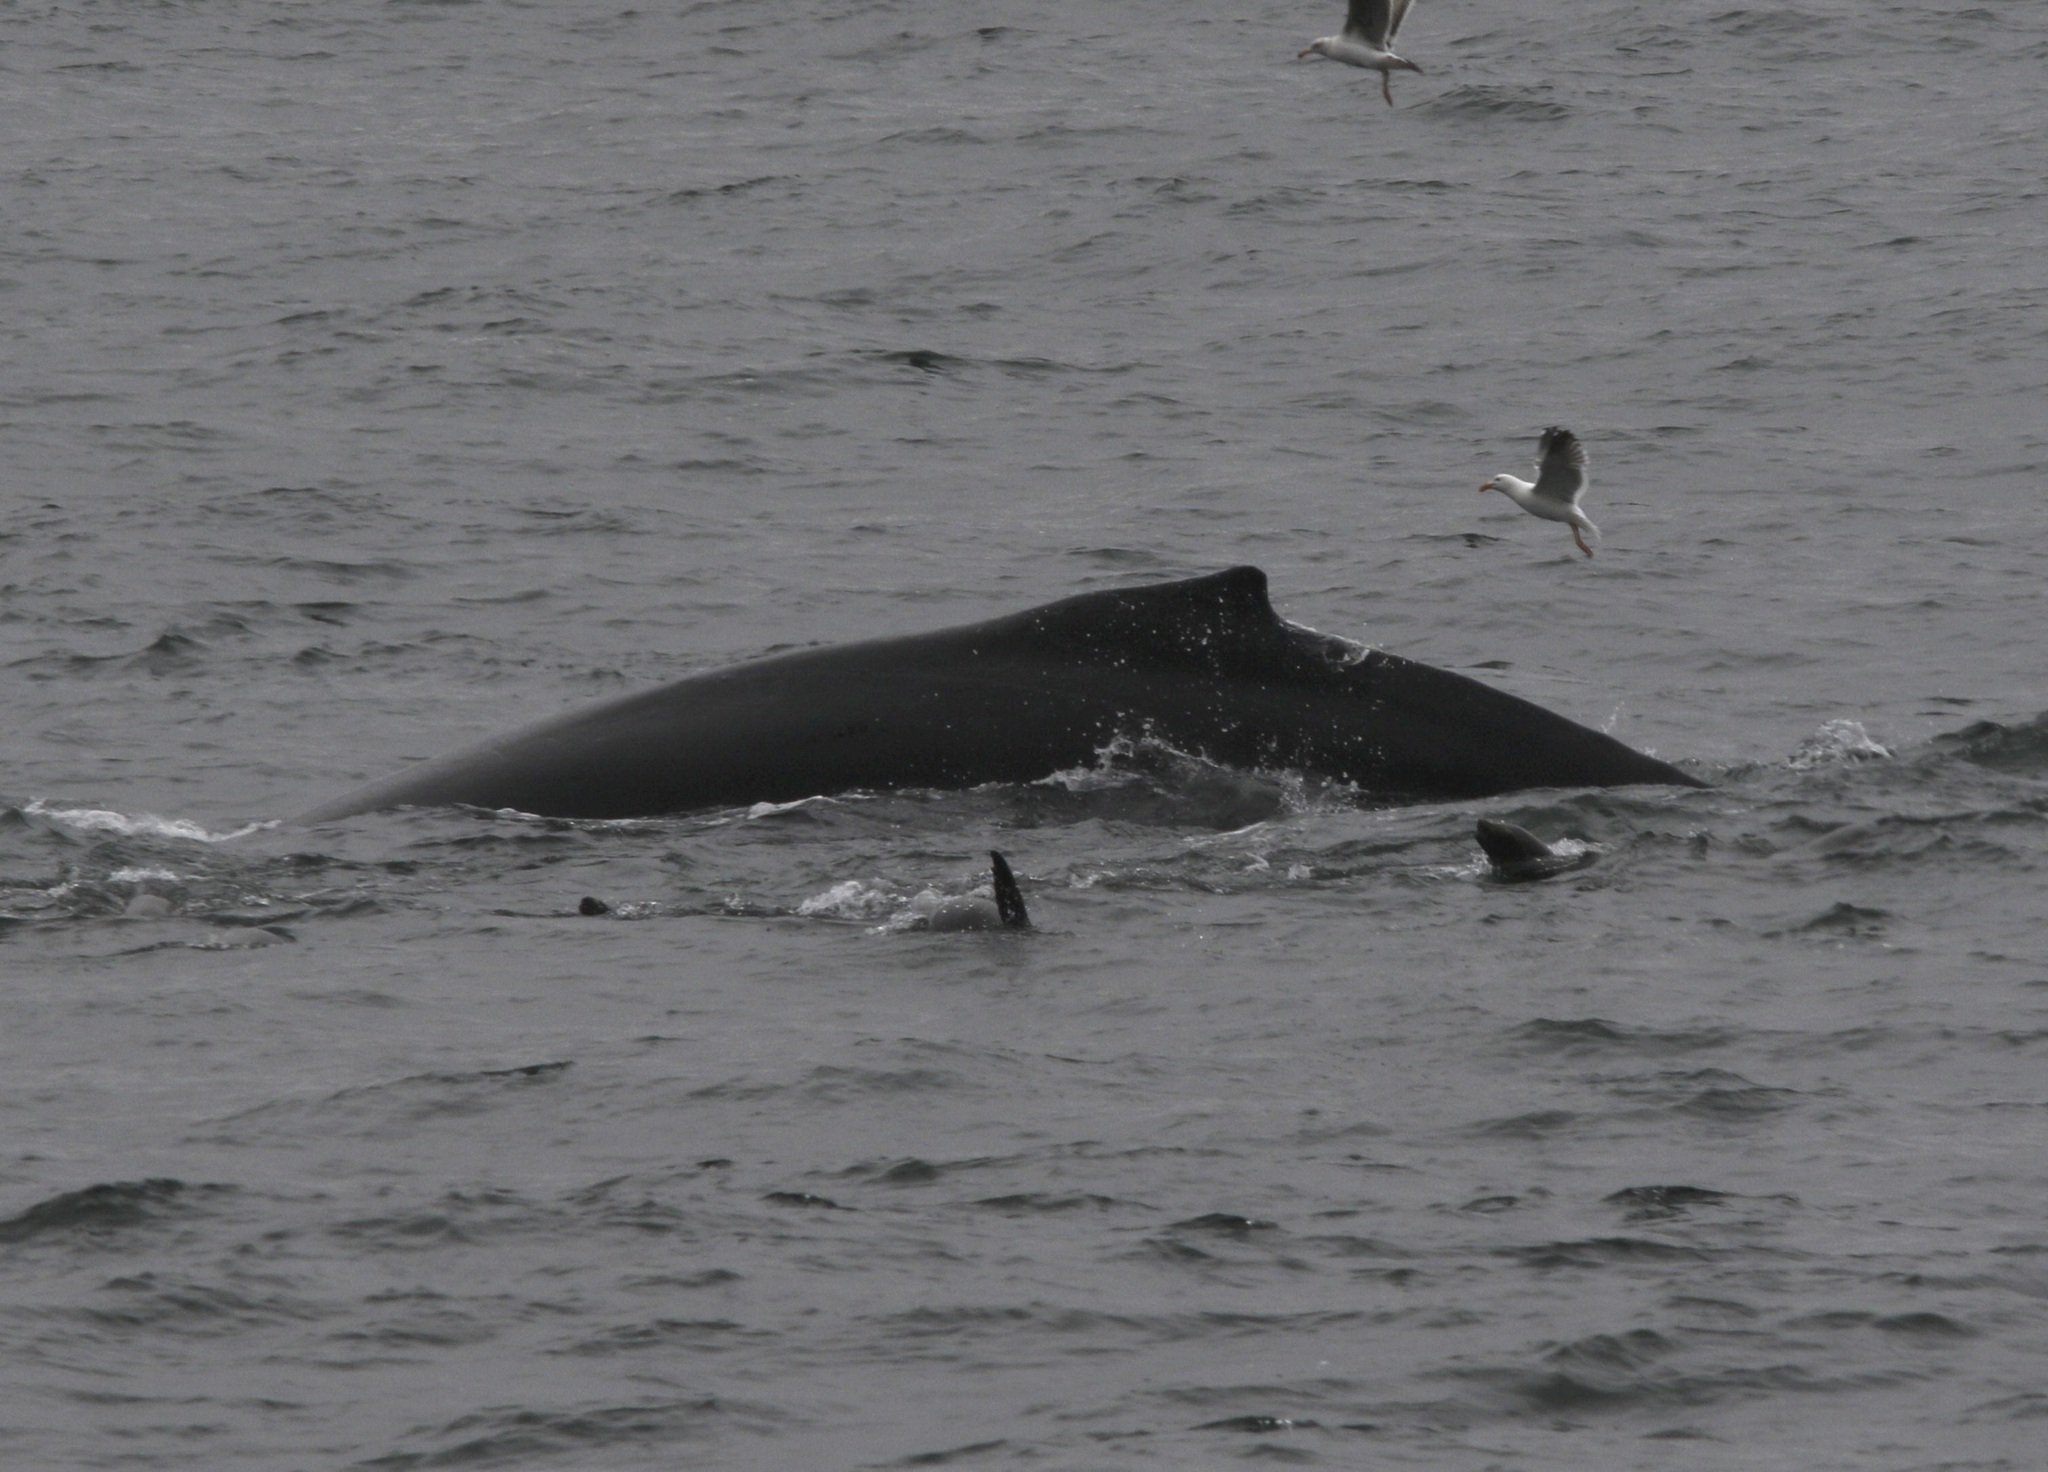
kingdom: Animalia
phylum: Chordata
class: Mammalia
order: Cetacea
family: Balaenopteridae
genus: Megaptera
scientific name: Megaptera novaeangliae
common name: Humpback whale
